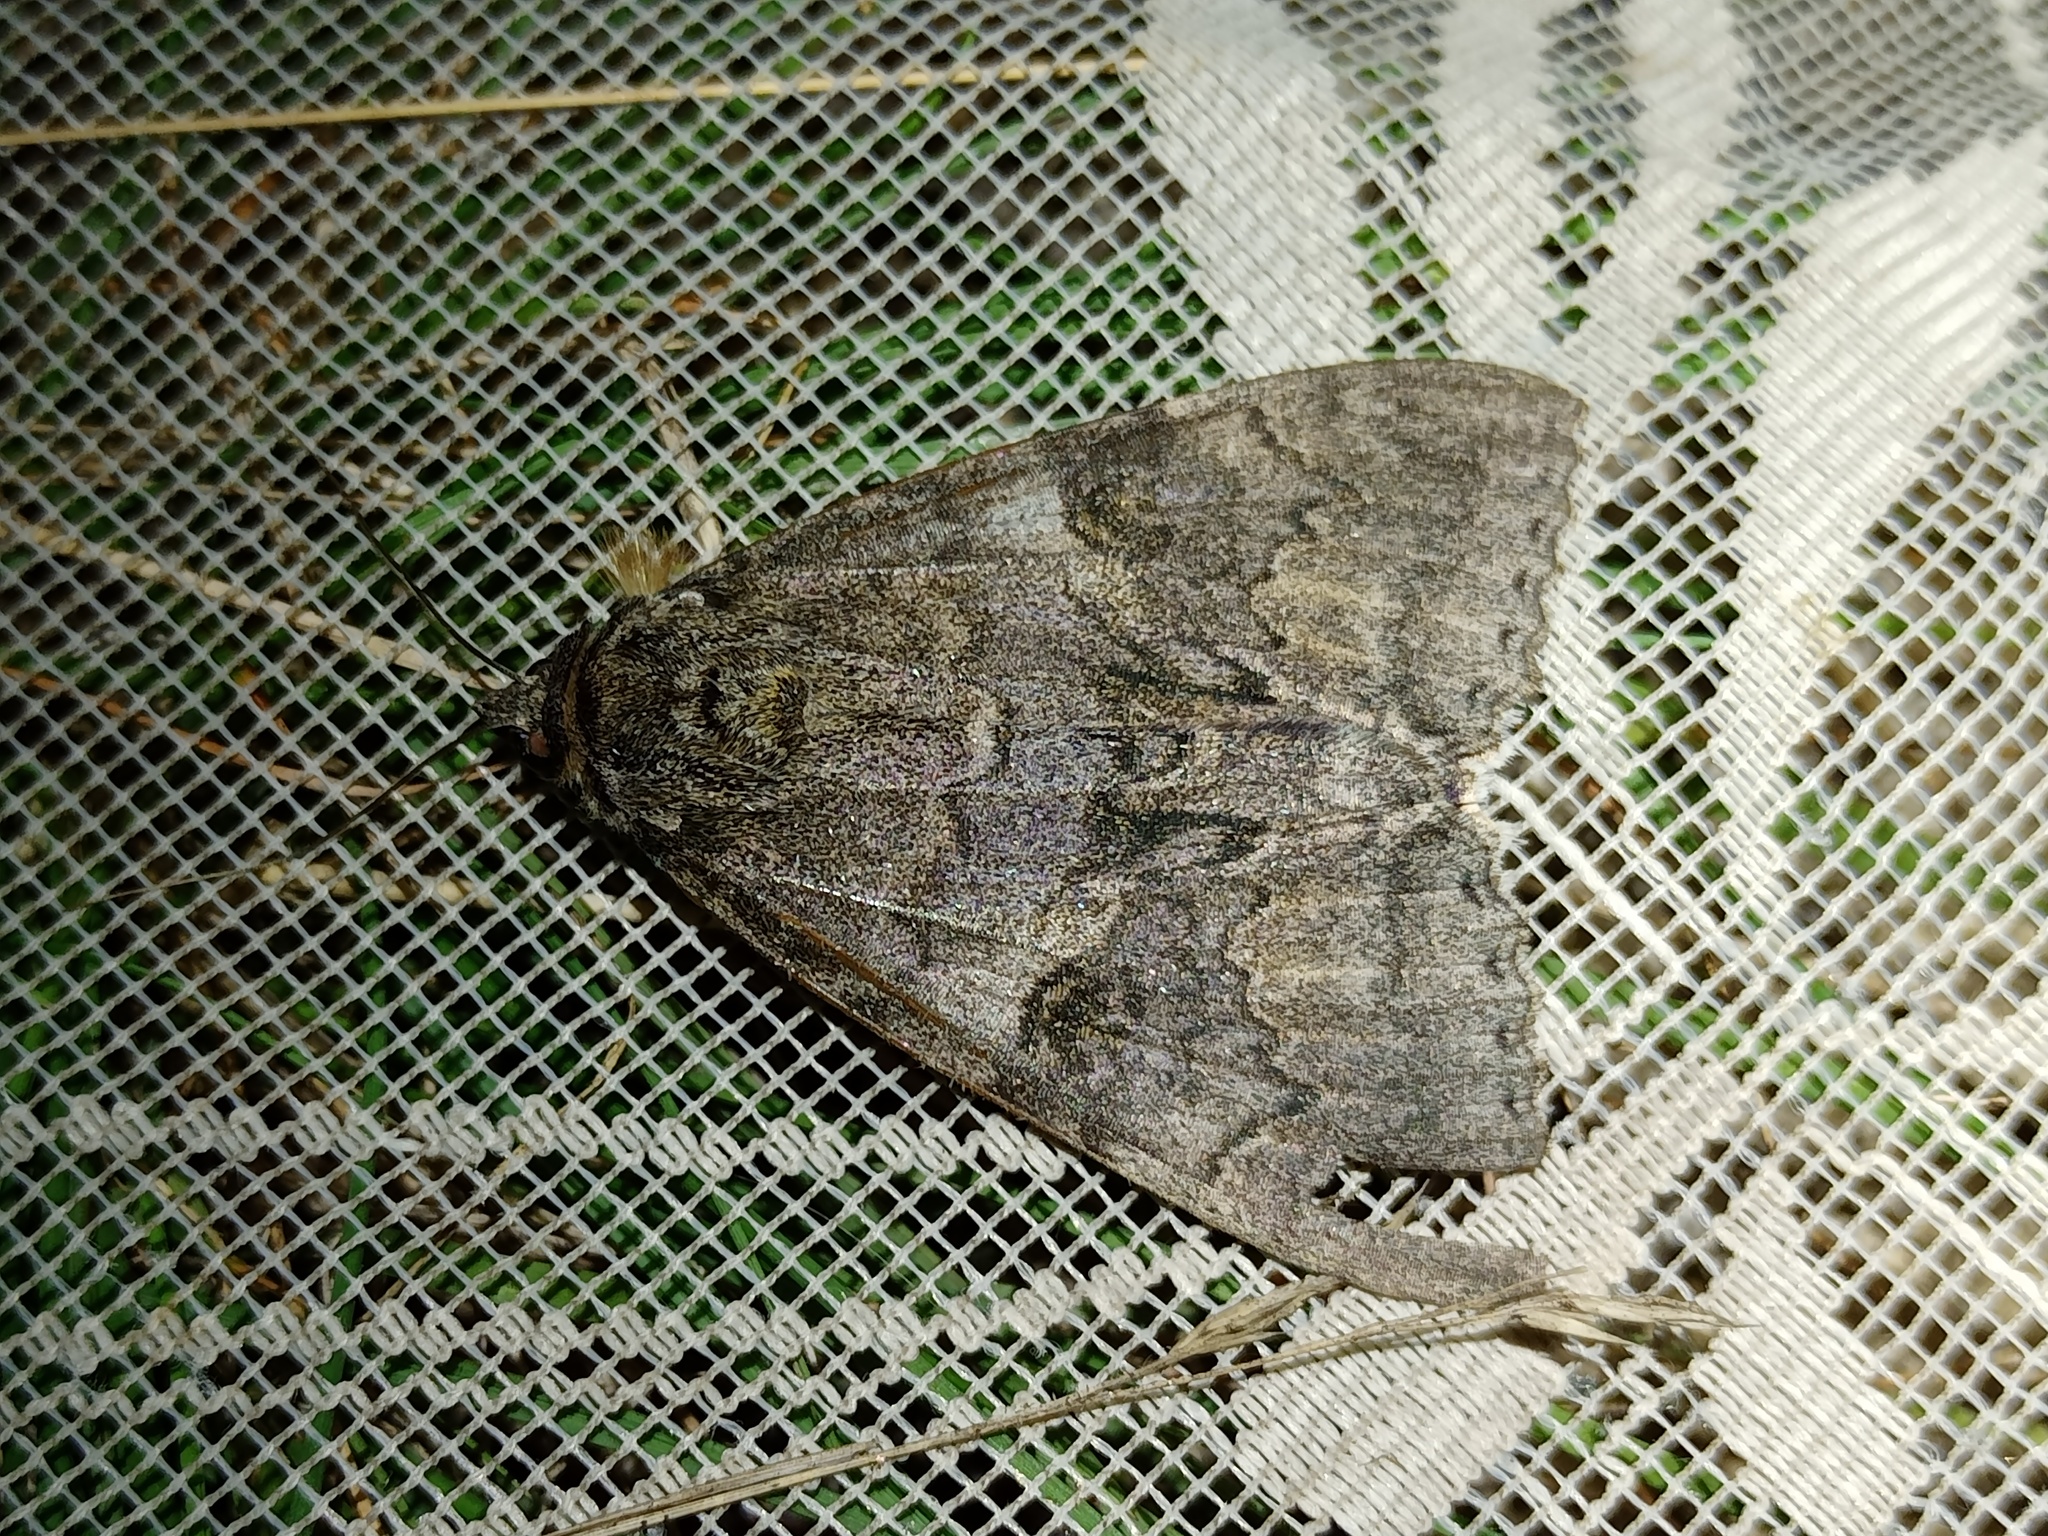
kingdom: Animalia
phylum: Arthropoda
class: Insecta
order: Lepidoptera
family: Erebidae
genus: Catocala
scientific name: Catocala nupta
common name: Red underwing
